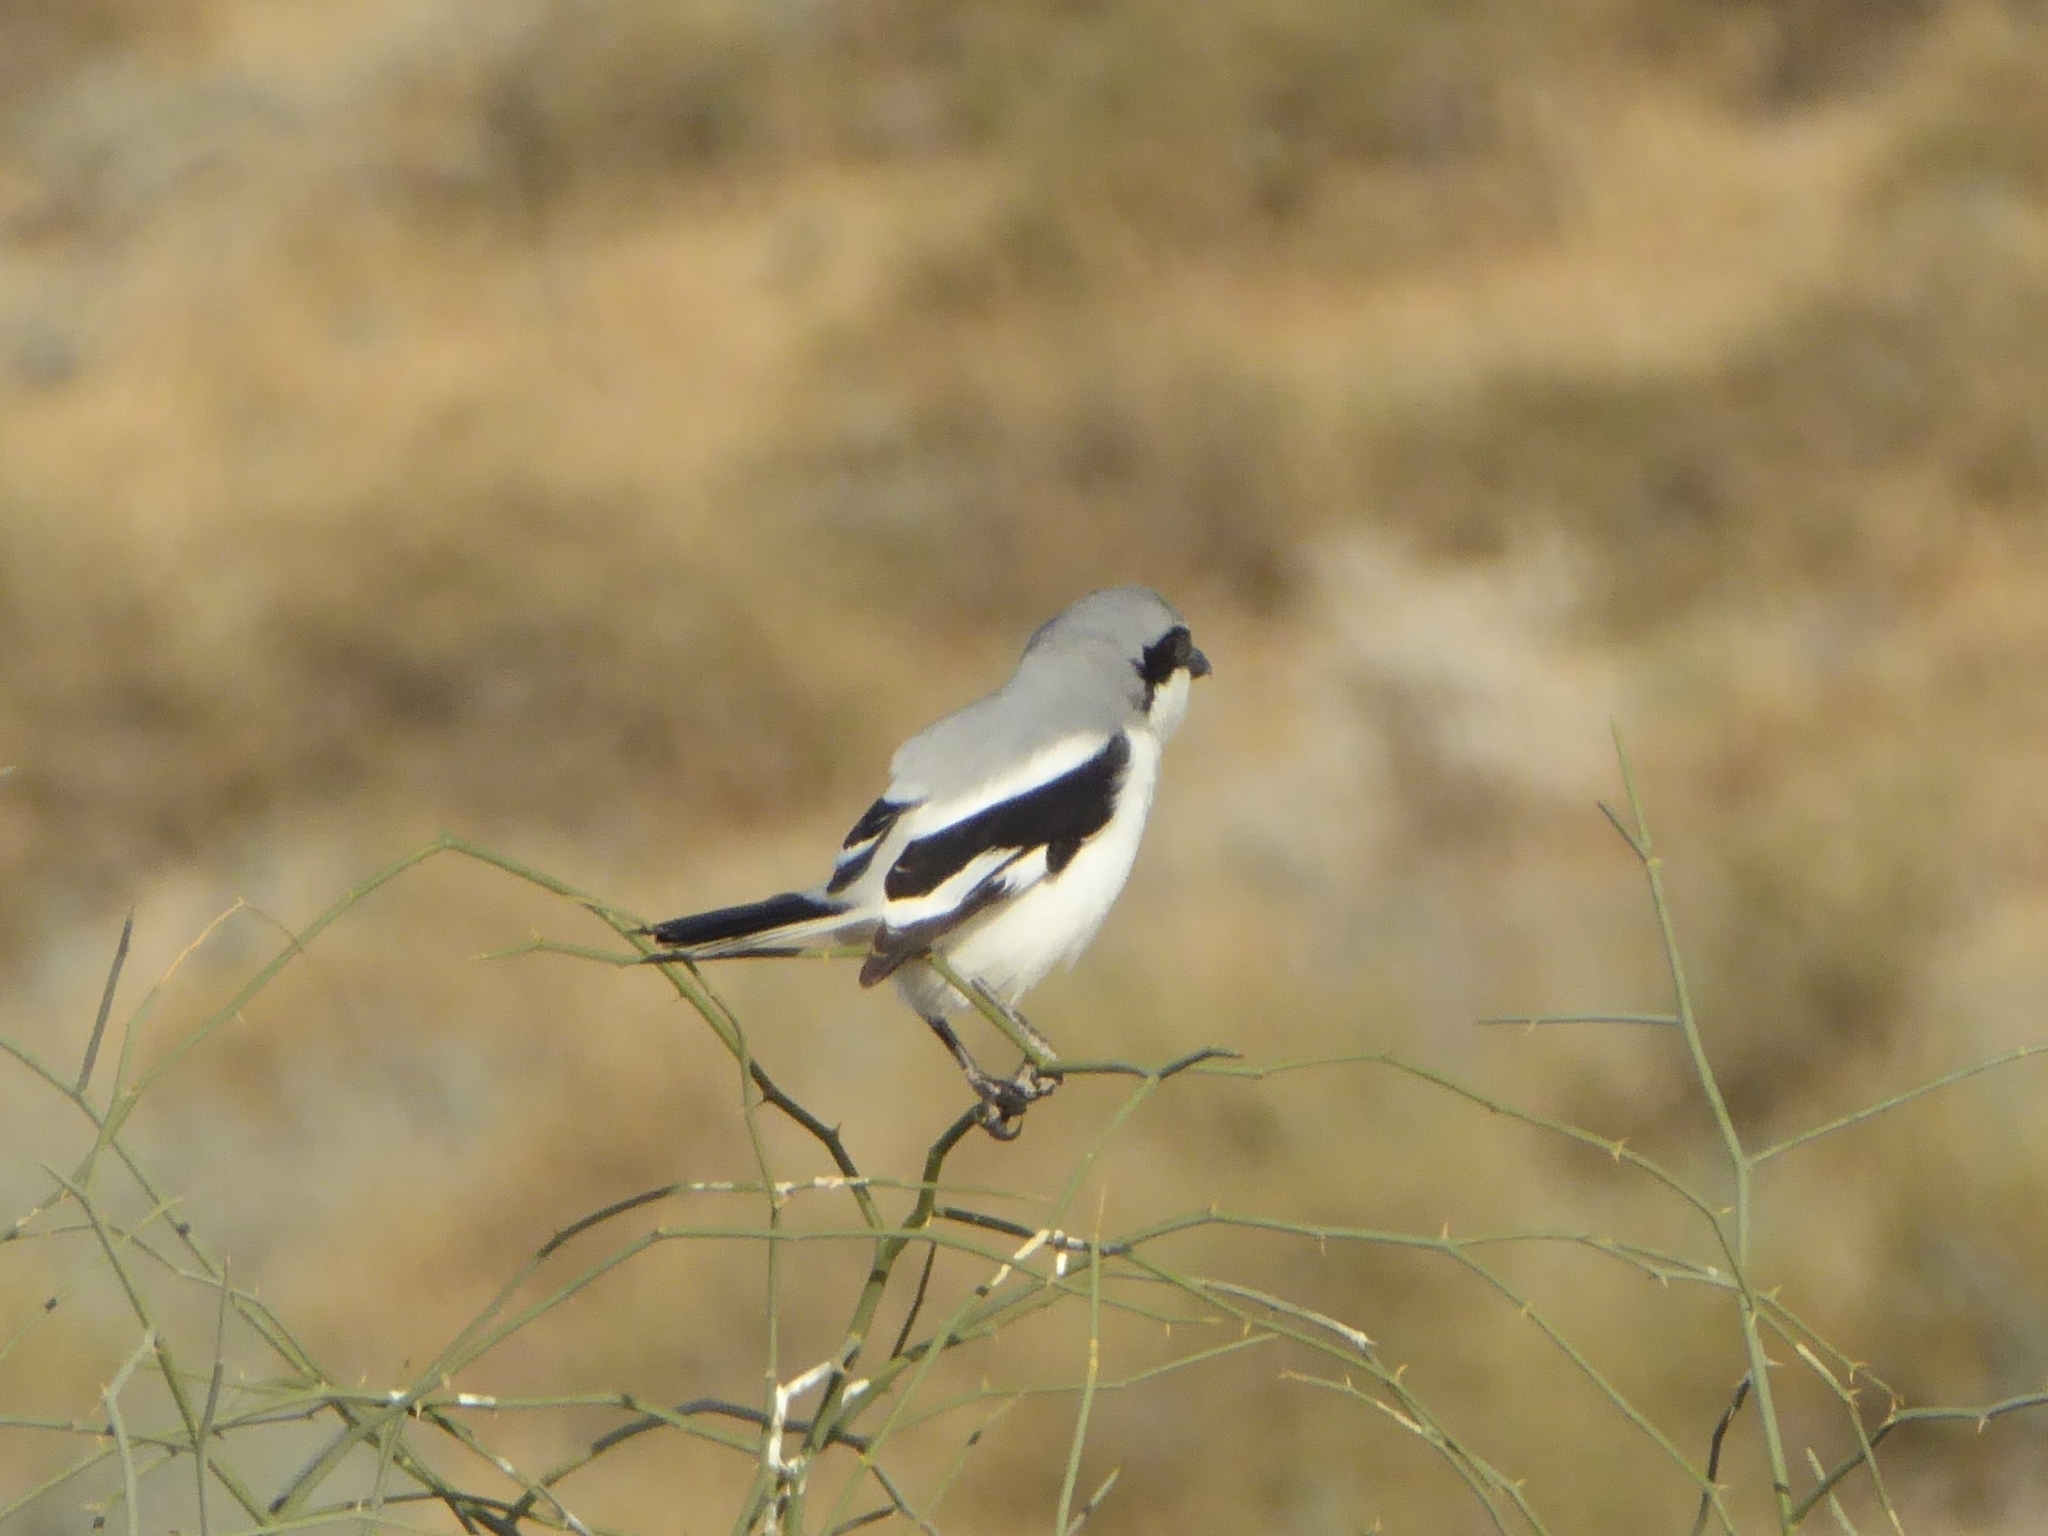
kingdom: Animalia
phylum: Chordata
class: Aves
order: Passeriformes
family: Laniidae
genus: Lanius
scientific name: Lanius excubitor
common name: Great grey shrike
